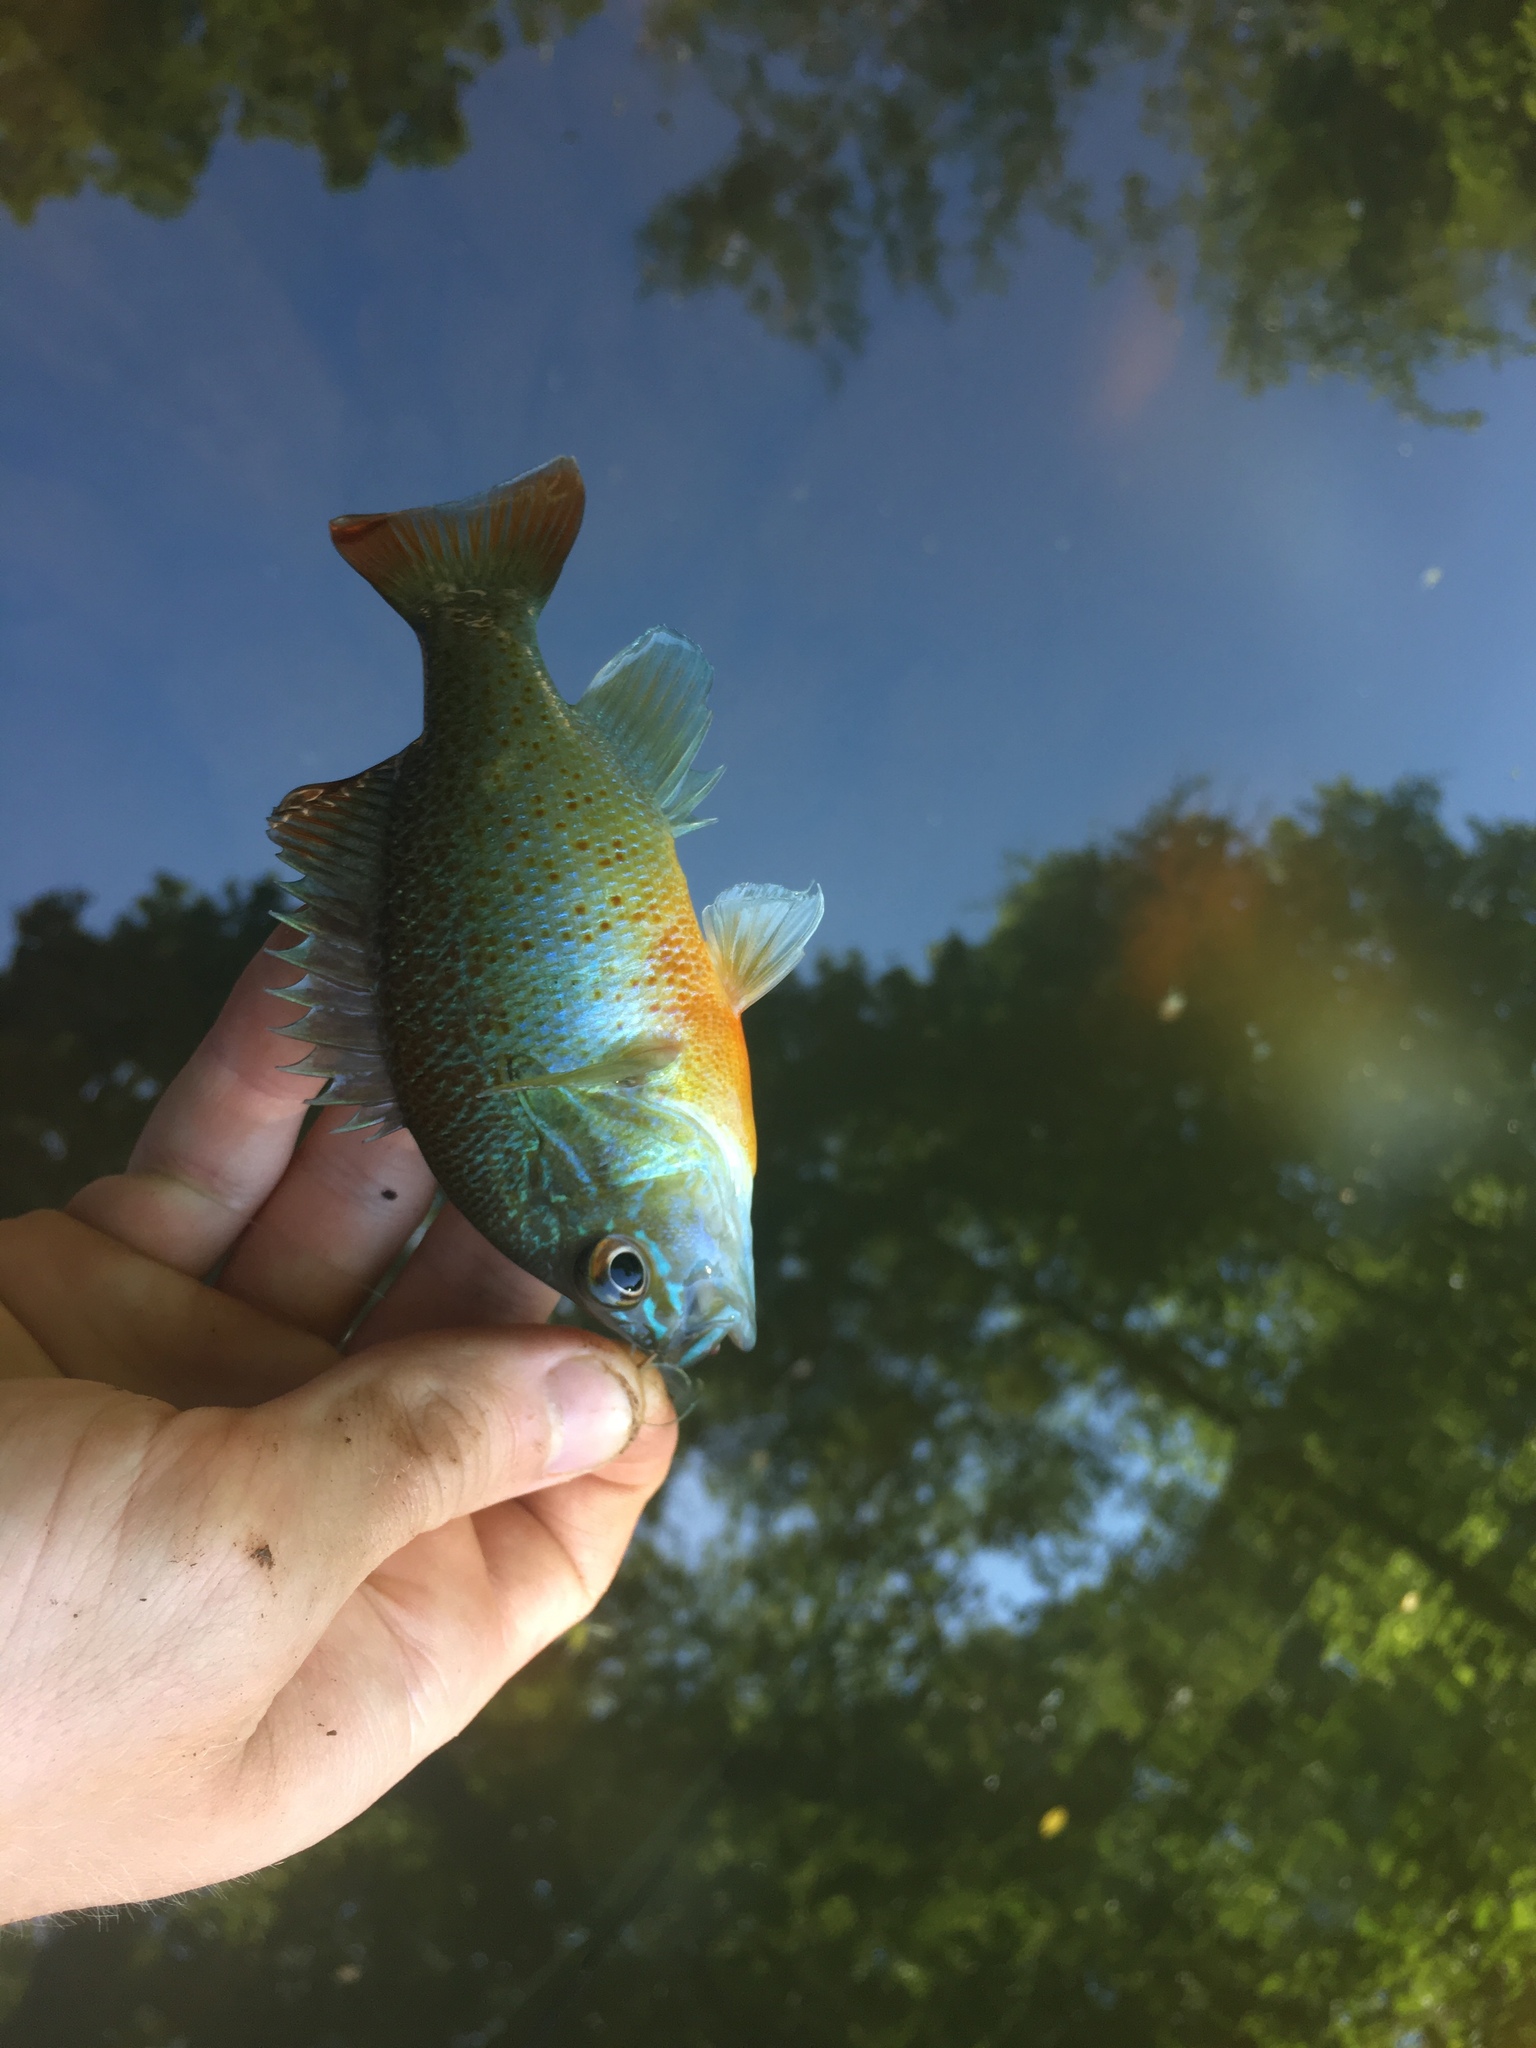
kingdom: Animalia
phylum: Chordata
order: Perciformes
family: Centrarchidae
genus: Lepomis
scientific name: Lepomis auritus
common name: Redbreast sunfish
